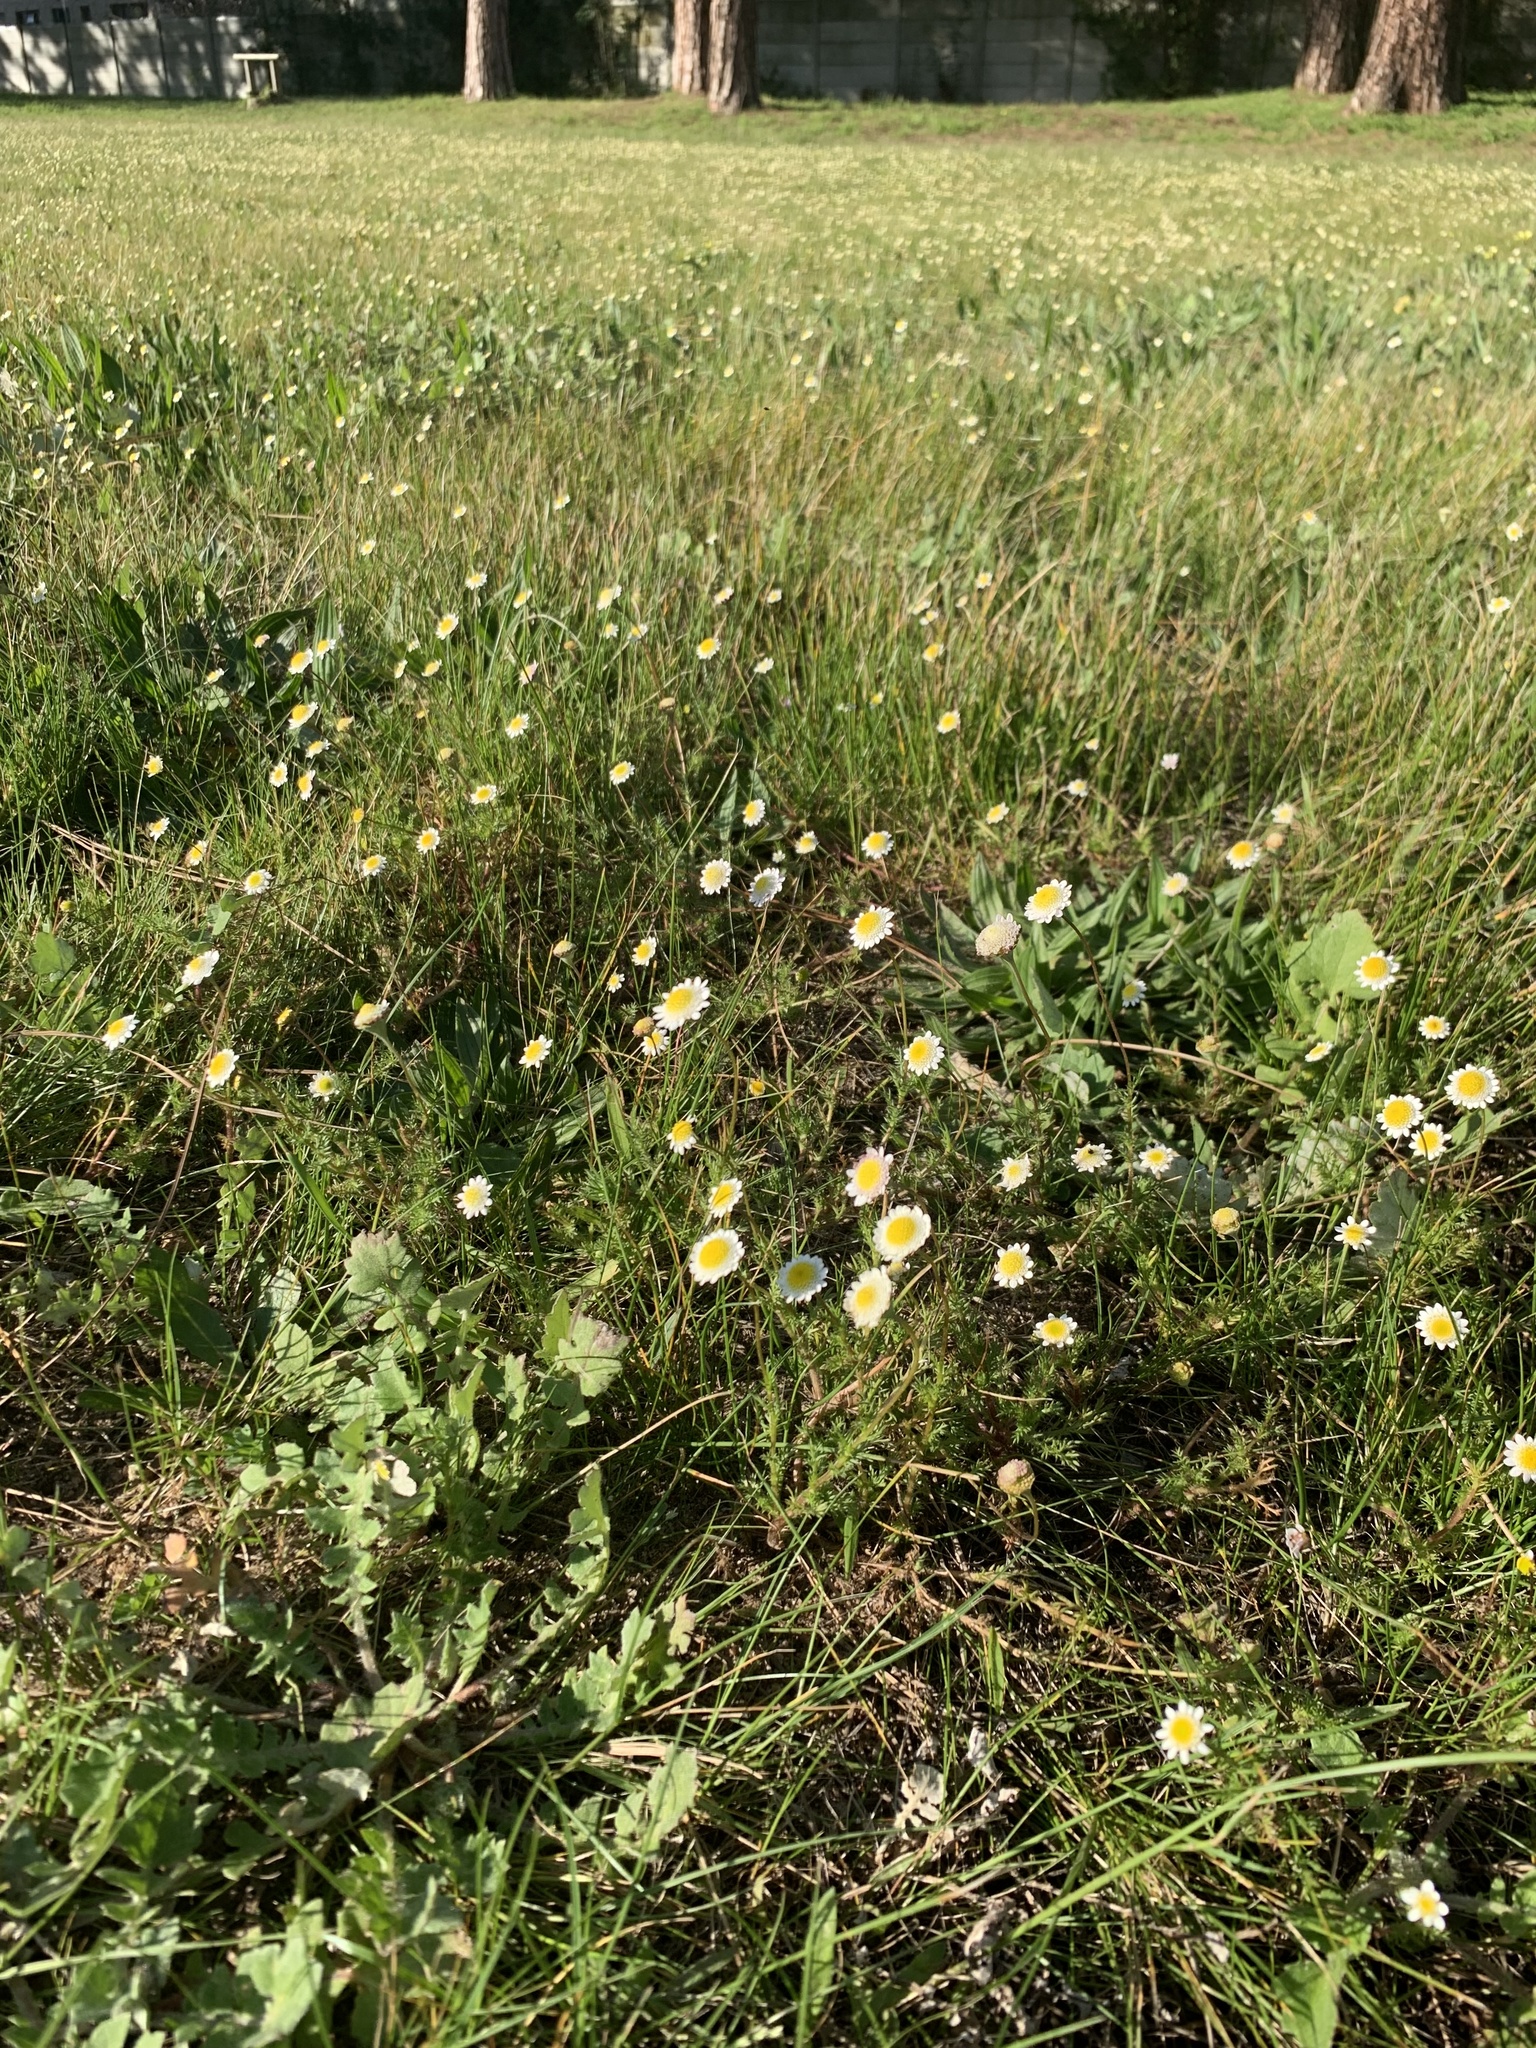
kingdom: Plantae
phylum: Tracheophyta
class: Magnoliopsida
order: Asterales
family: Asteraceae
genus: Cotula
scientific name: Cotula turbinata
